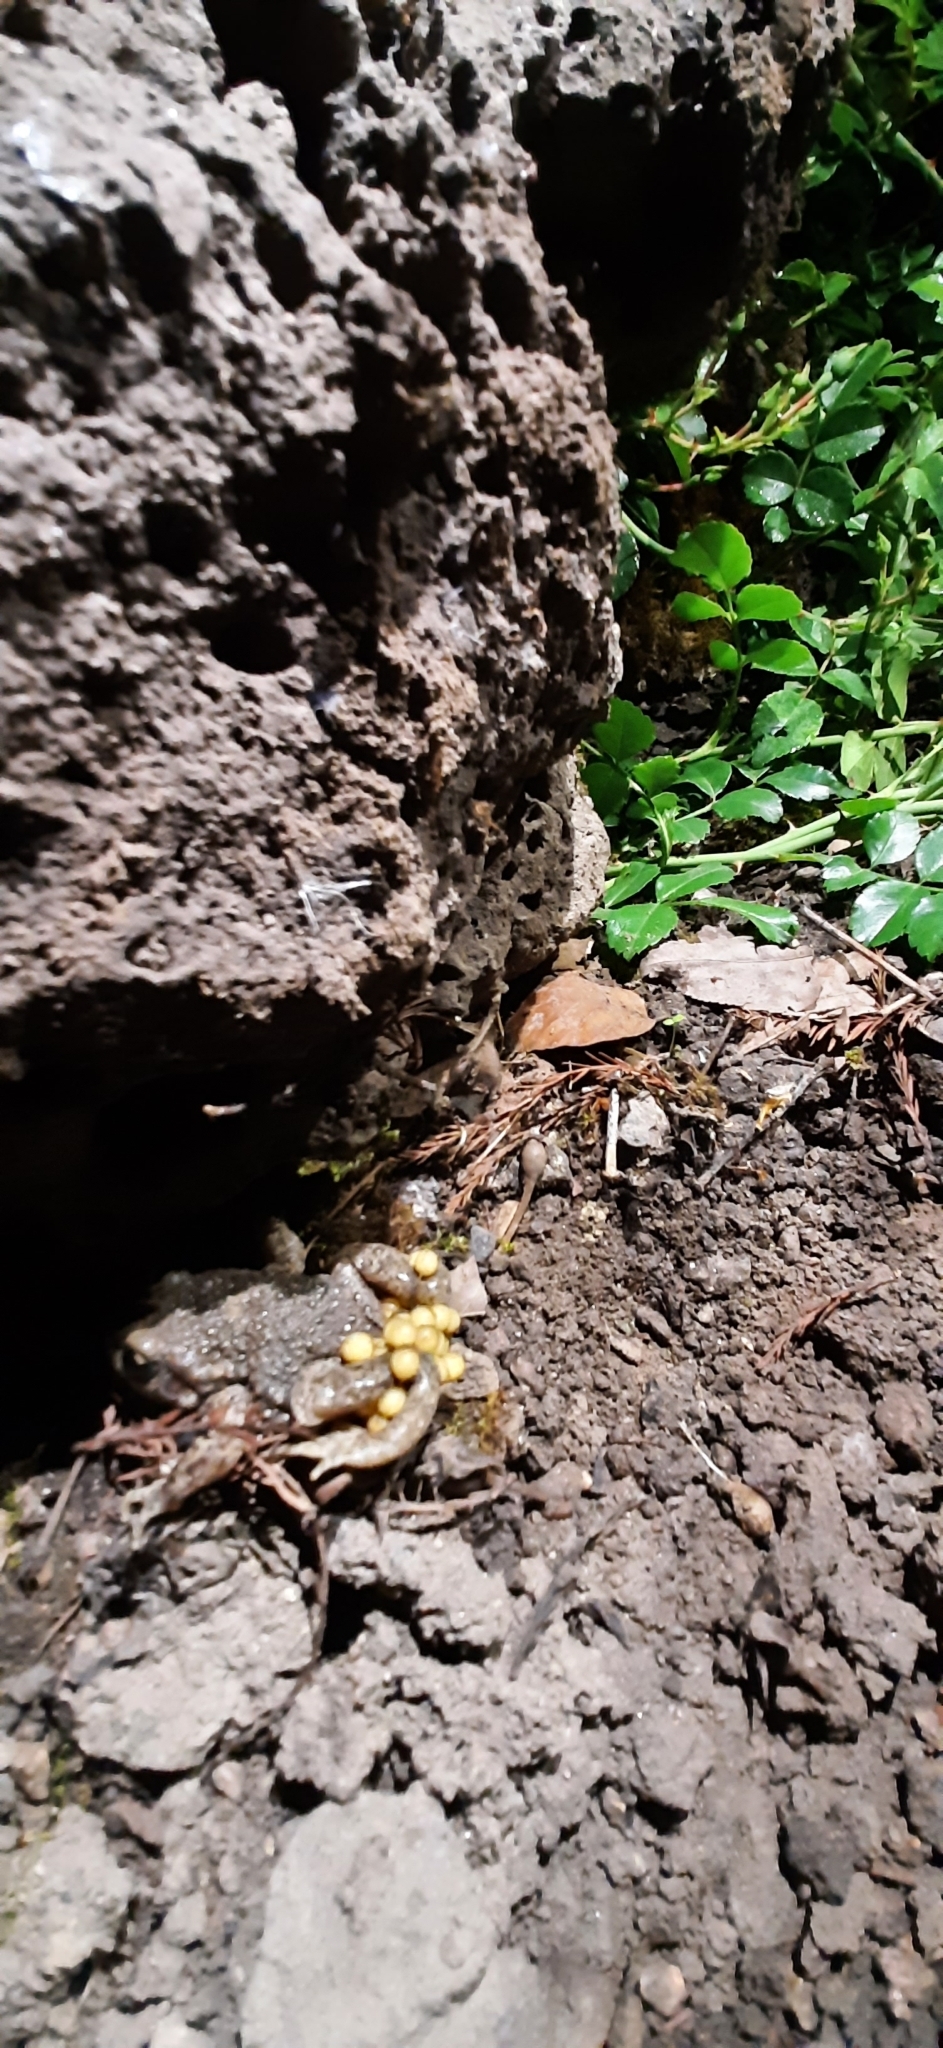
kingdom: Animalia
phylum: Chordata
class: Amphibia
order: Anura
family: Alytidae
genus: Alytes
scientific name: Alytes obstetricans
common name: Midwife toad
